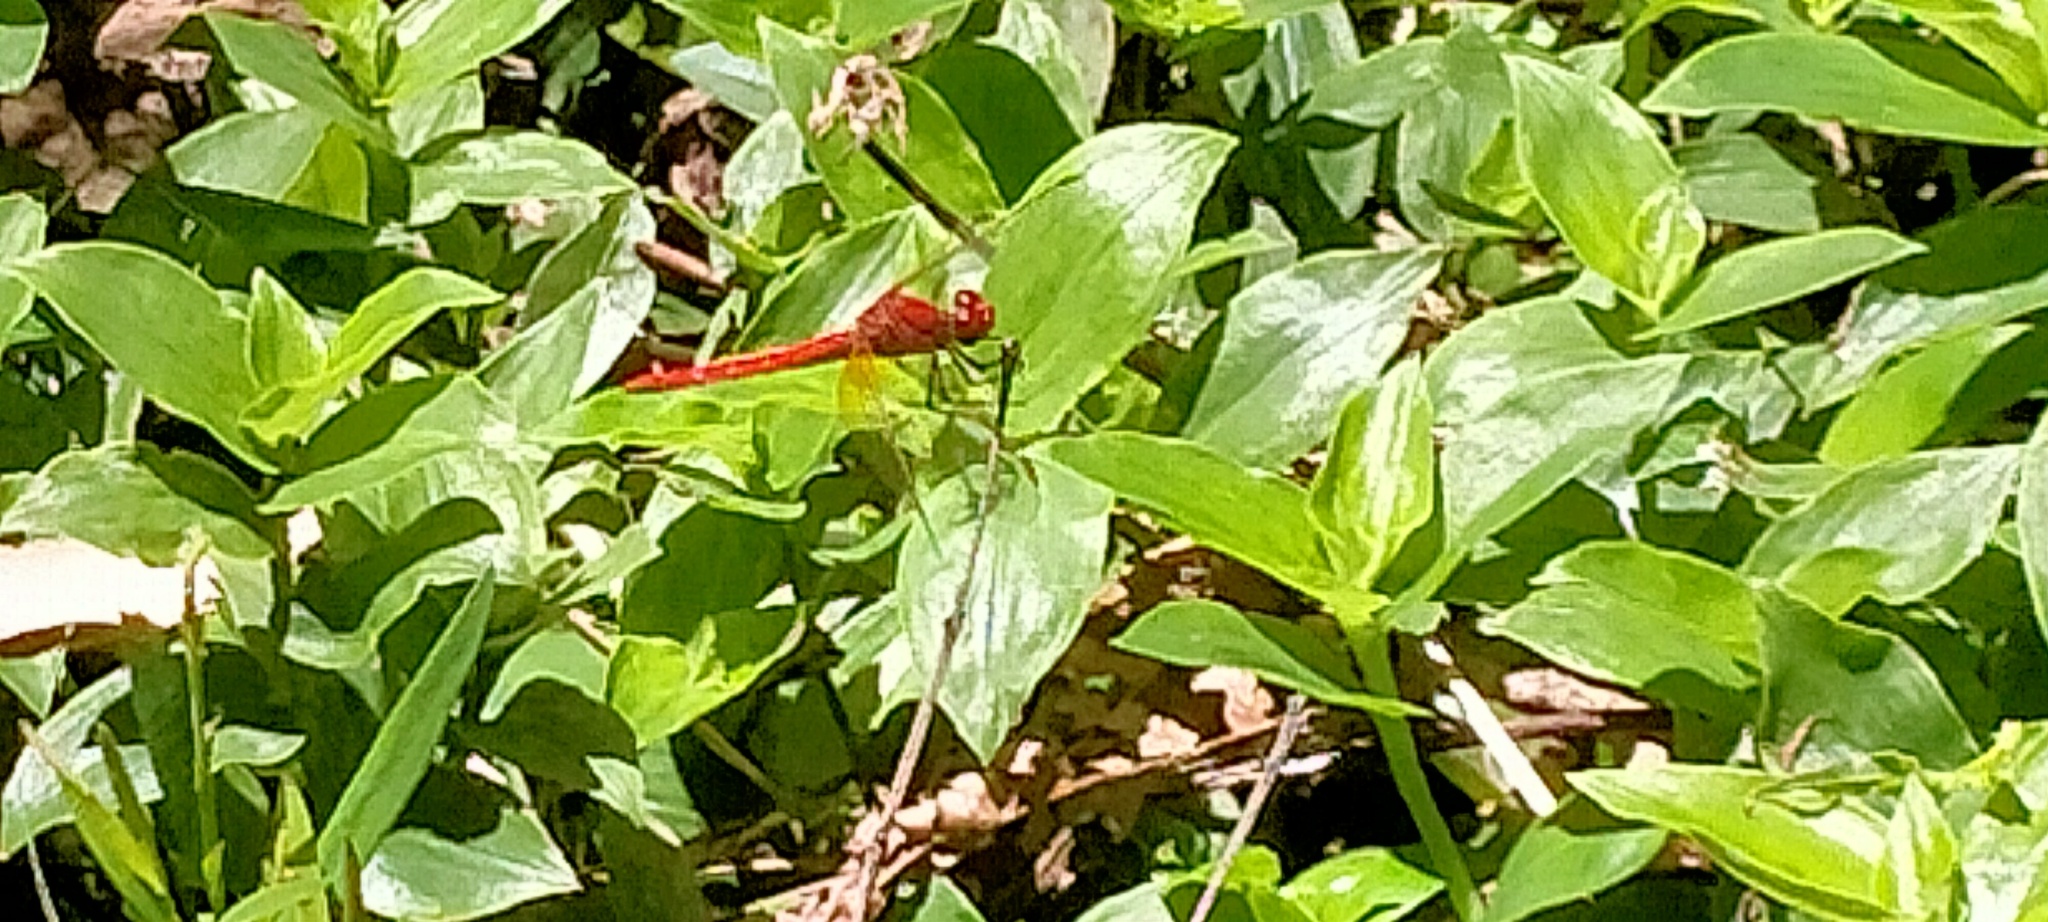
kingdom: Animalia
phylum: Arthropoda
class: Insecta
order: Odonata
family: Libellulidae
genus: Diplacodes
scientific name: Diplacodes haematodes
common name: Scarlet percher
